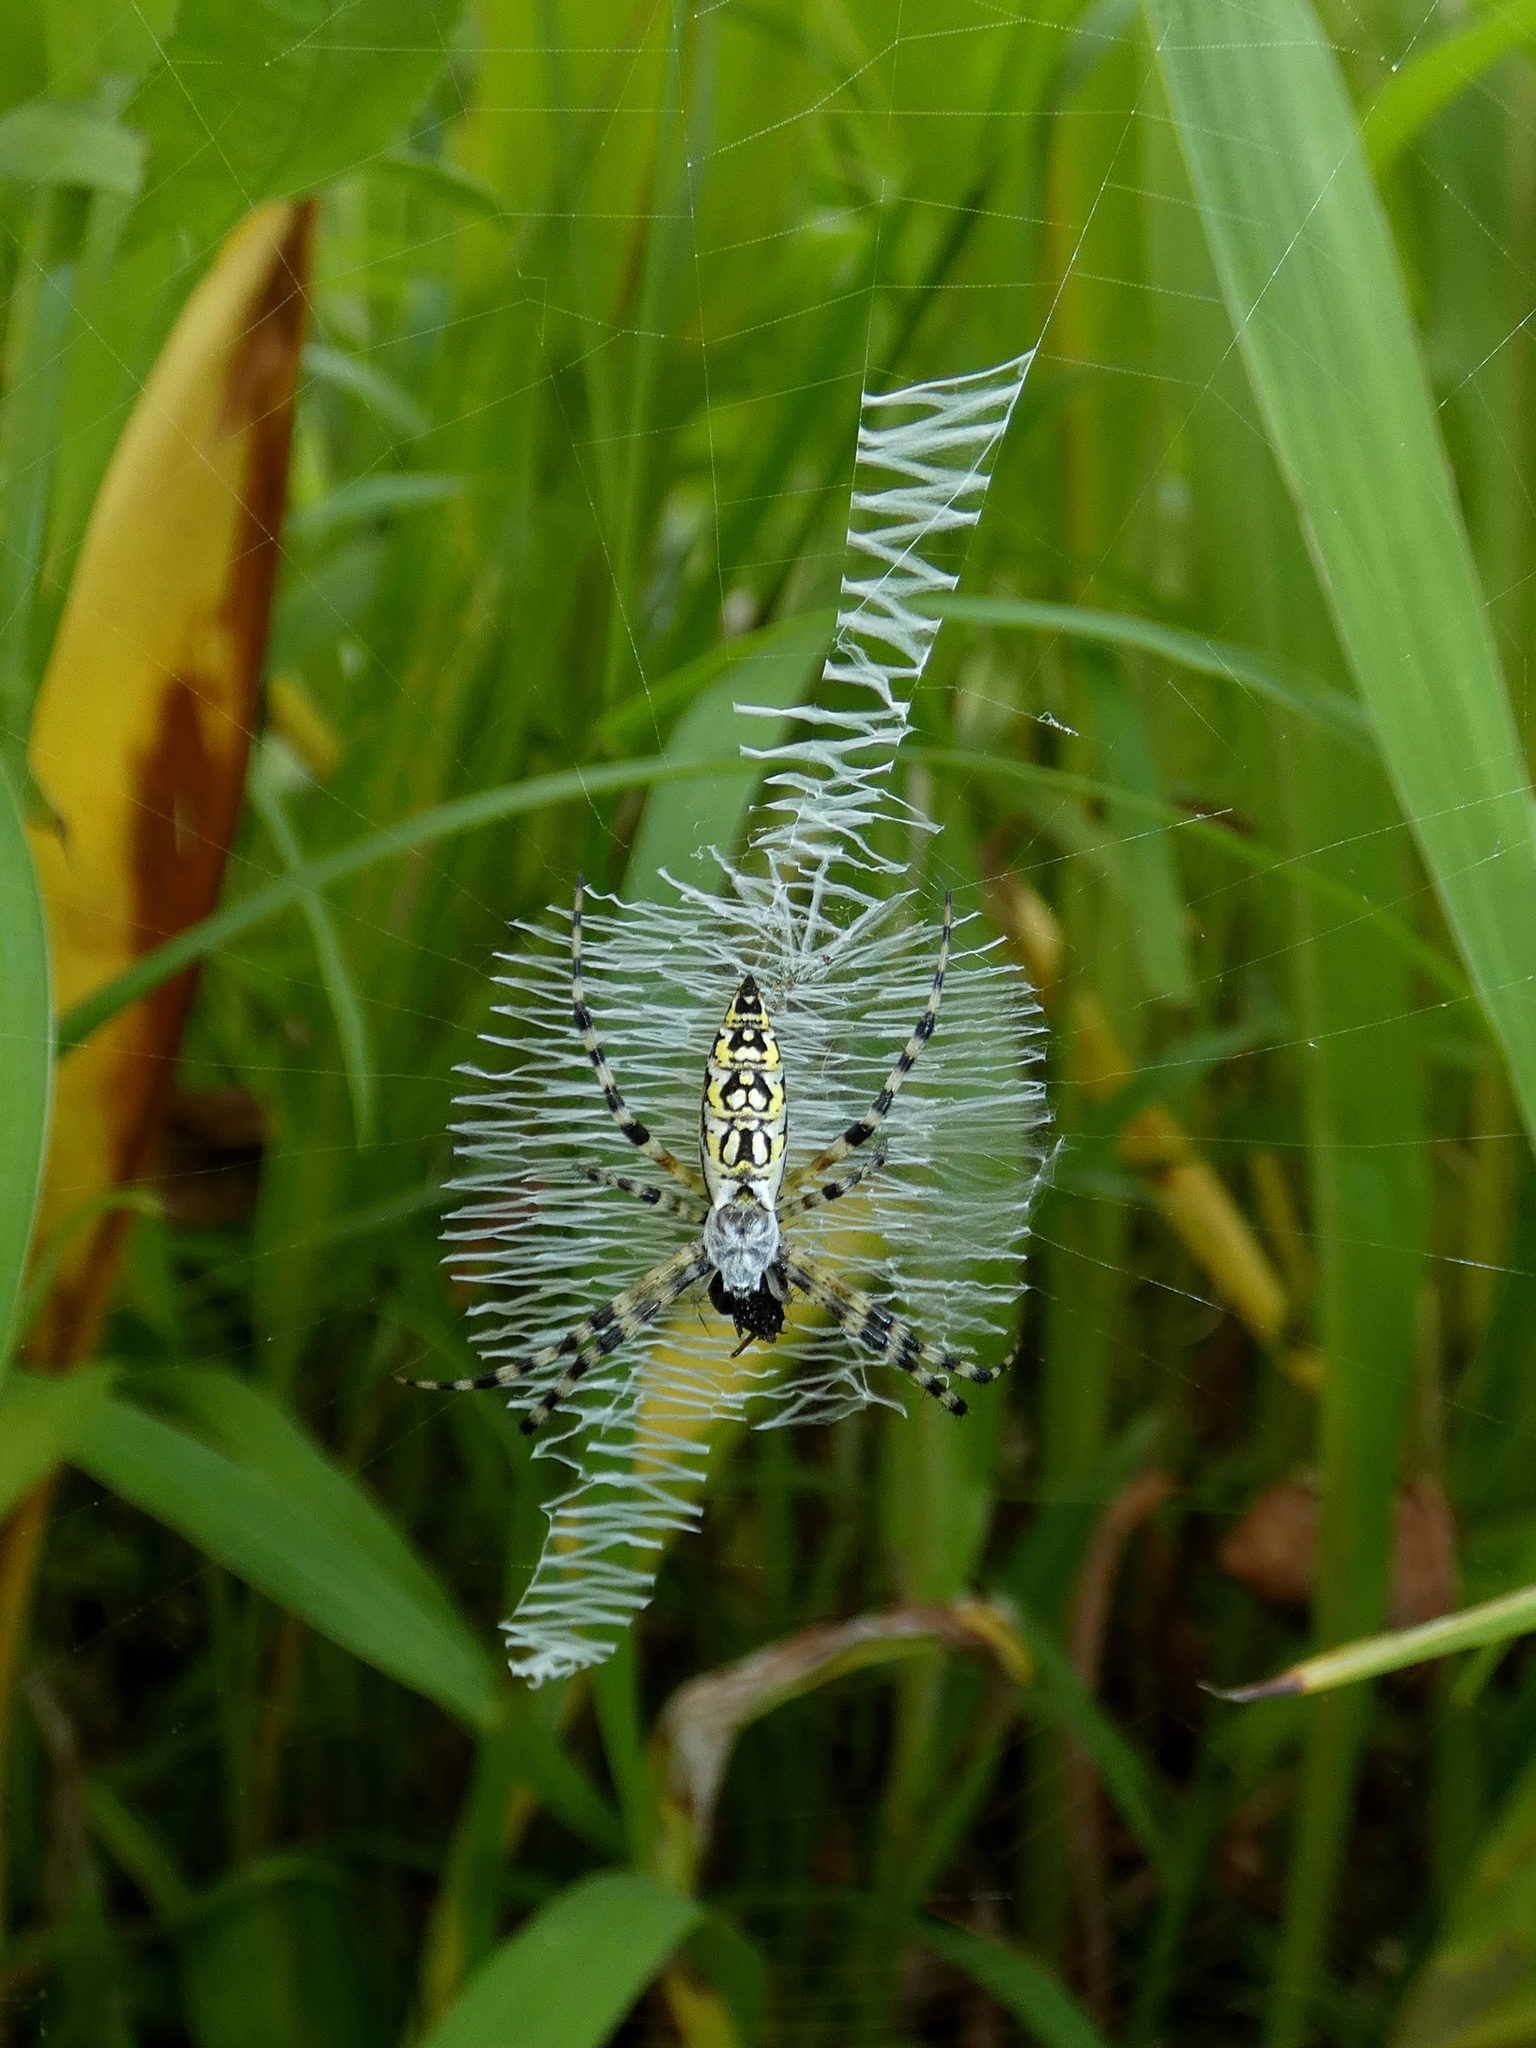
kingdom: Animalia
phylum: Arthropoda
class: Arachnida
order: Araneae
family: Araneidae
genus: Argiope
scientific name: Argiope aurantia
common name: Orb weavers
